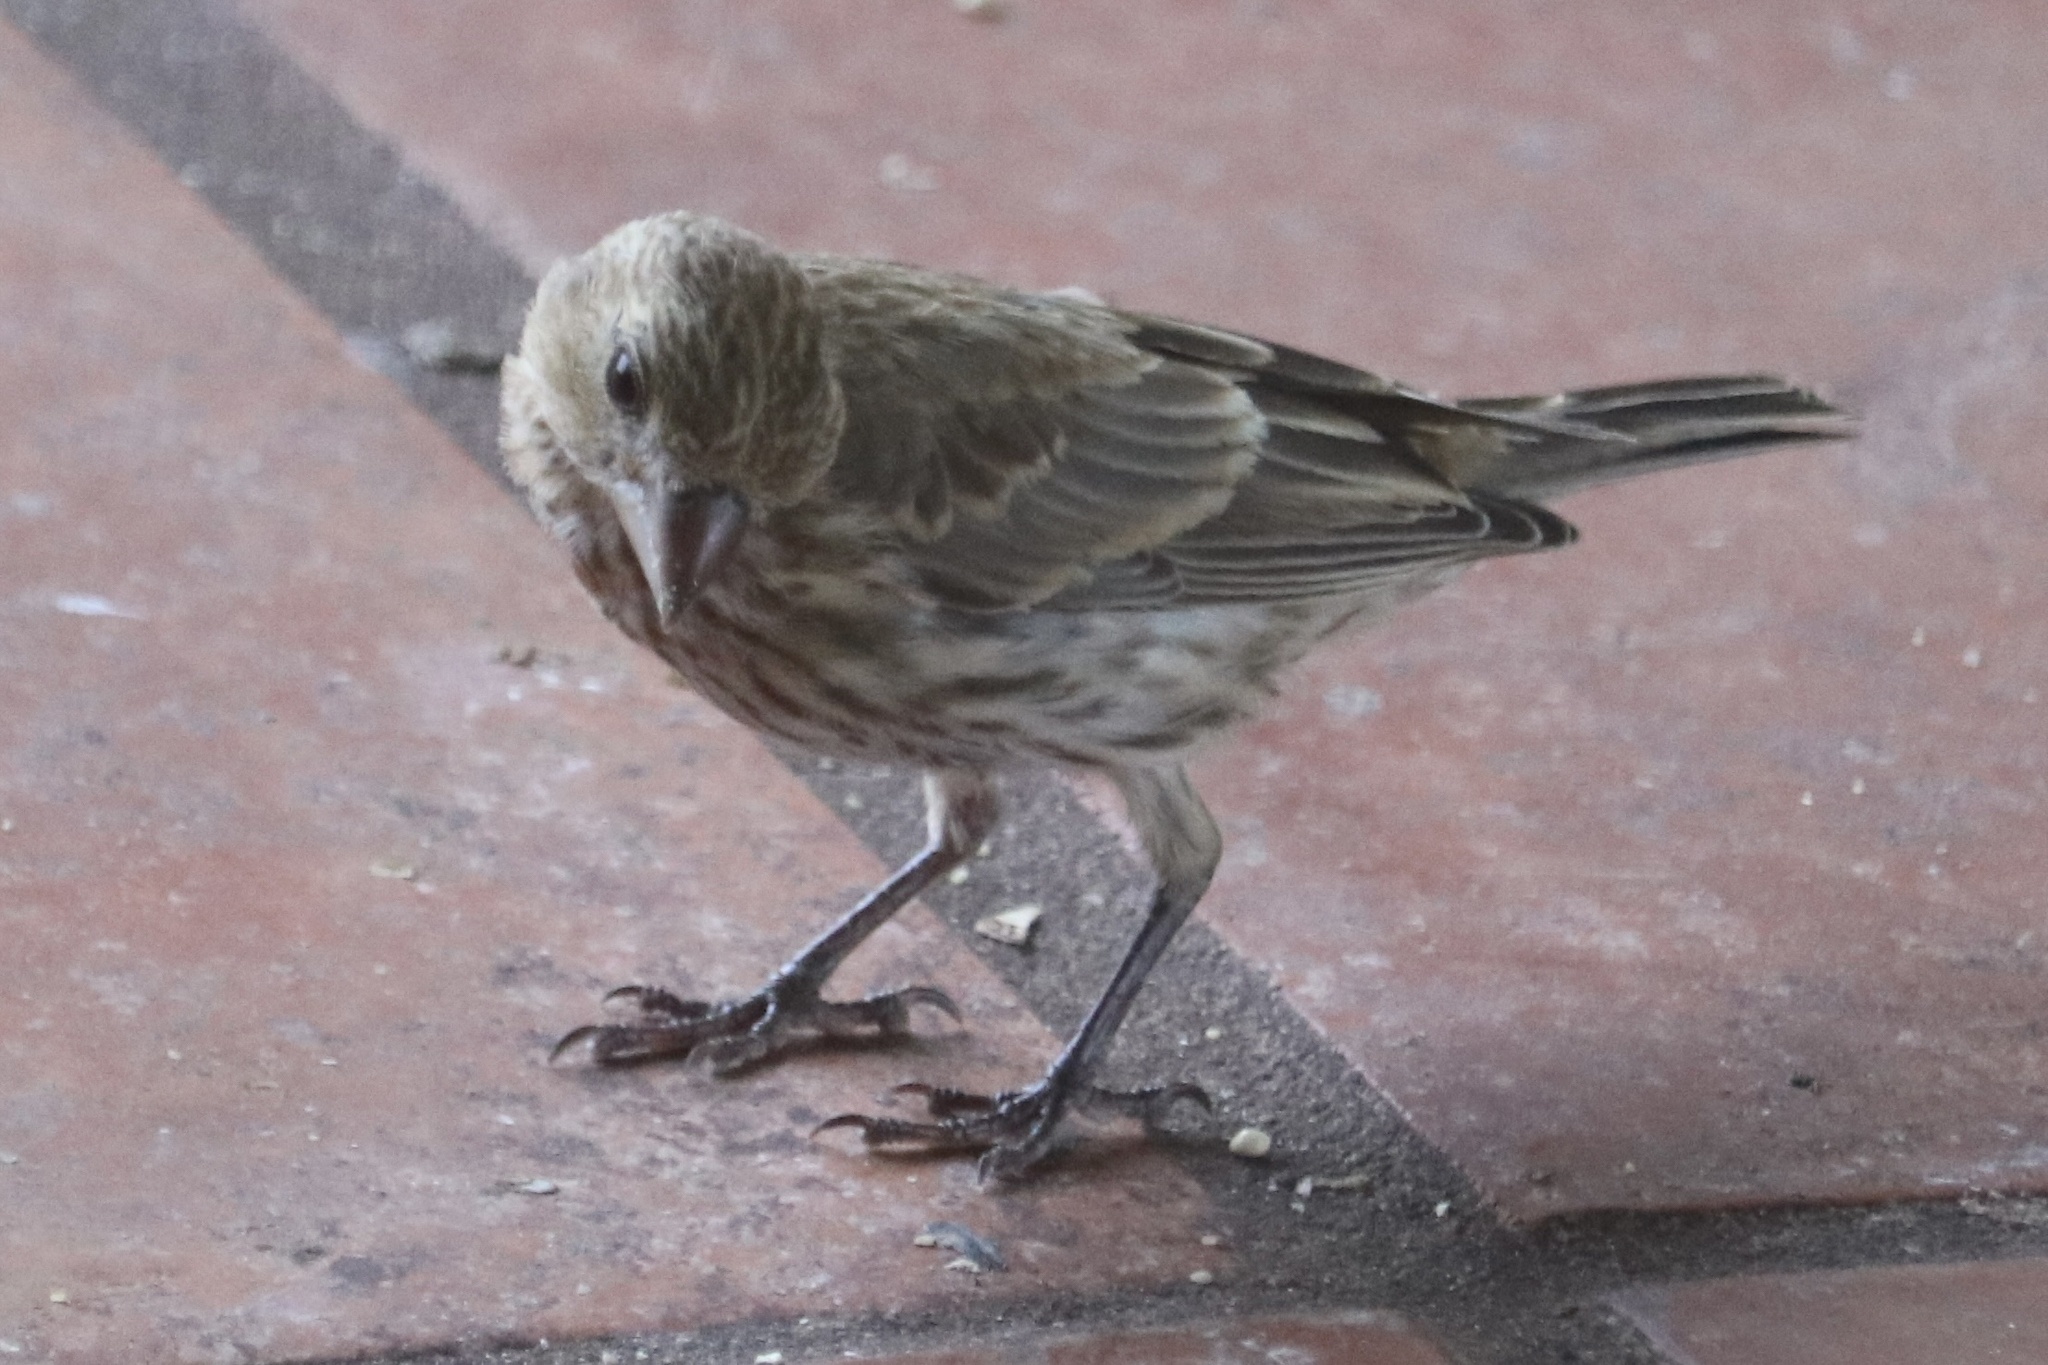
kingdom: Animalia
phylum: Chordata
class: Aves
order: Passeriformes
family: Fringillidae
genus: Haemorhous
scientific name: Haemorhous mexicanus
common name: House finch
